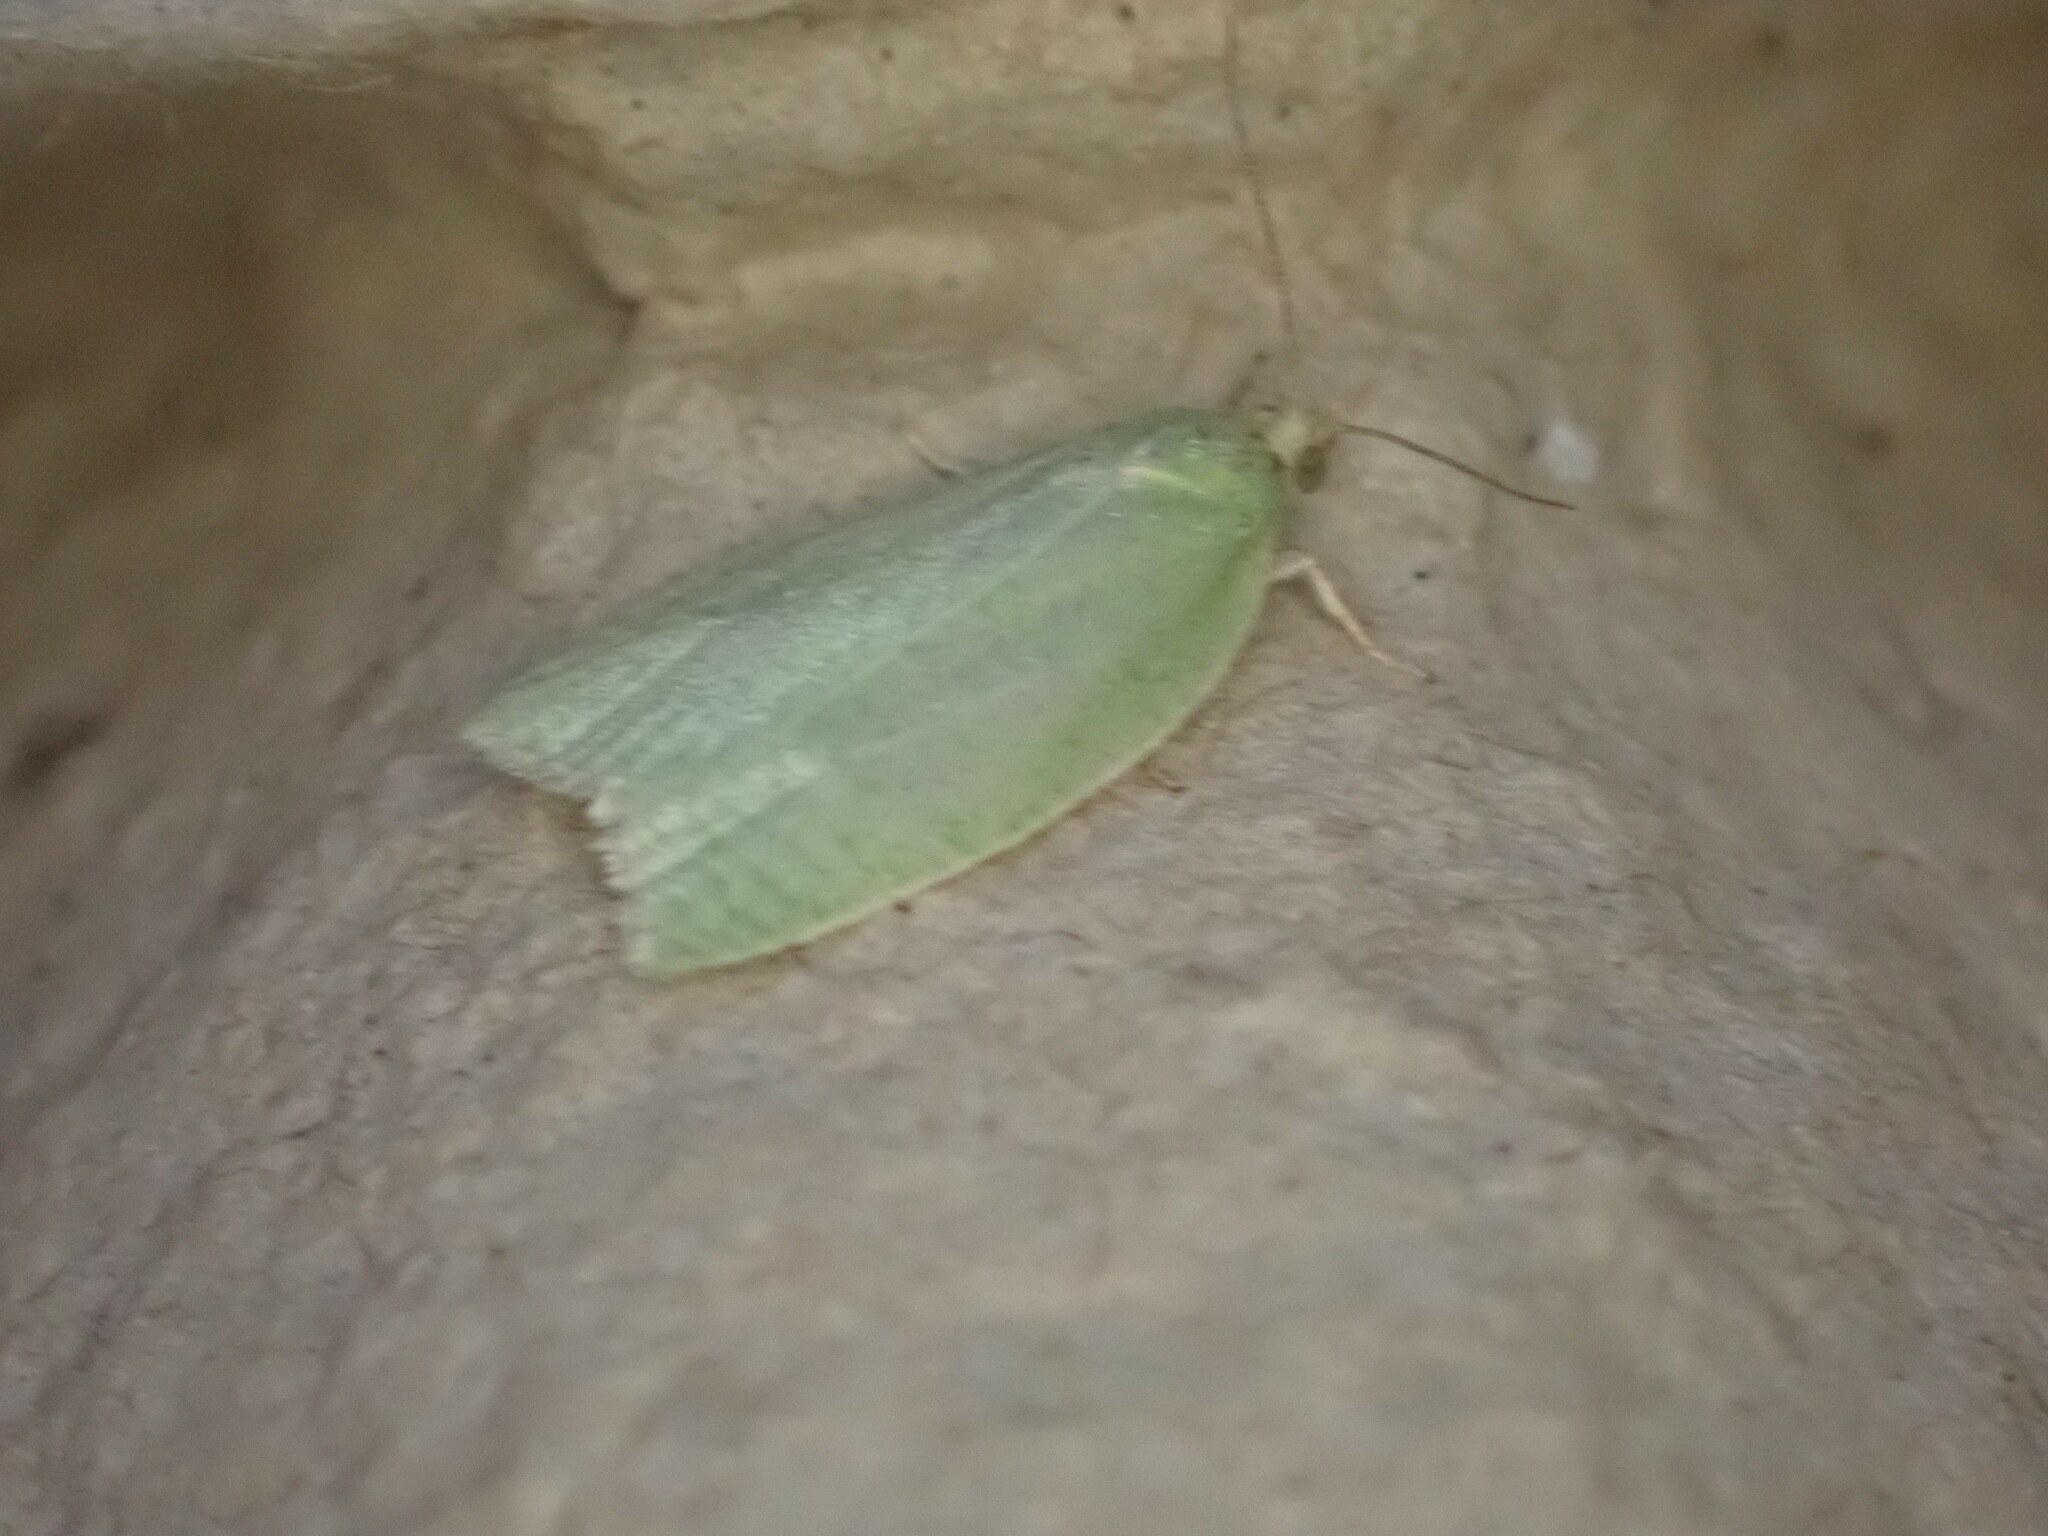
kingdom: Animalia
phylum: Arthropoda
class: Insecta
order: Lepidoptera
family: Tortricidae
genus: Tortrix
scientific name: Tortrix viridana
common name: Green oak tortrix
